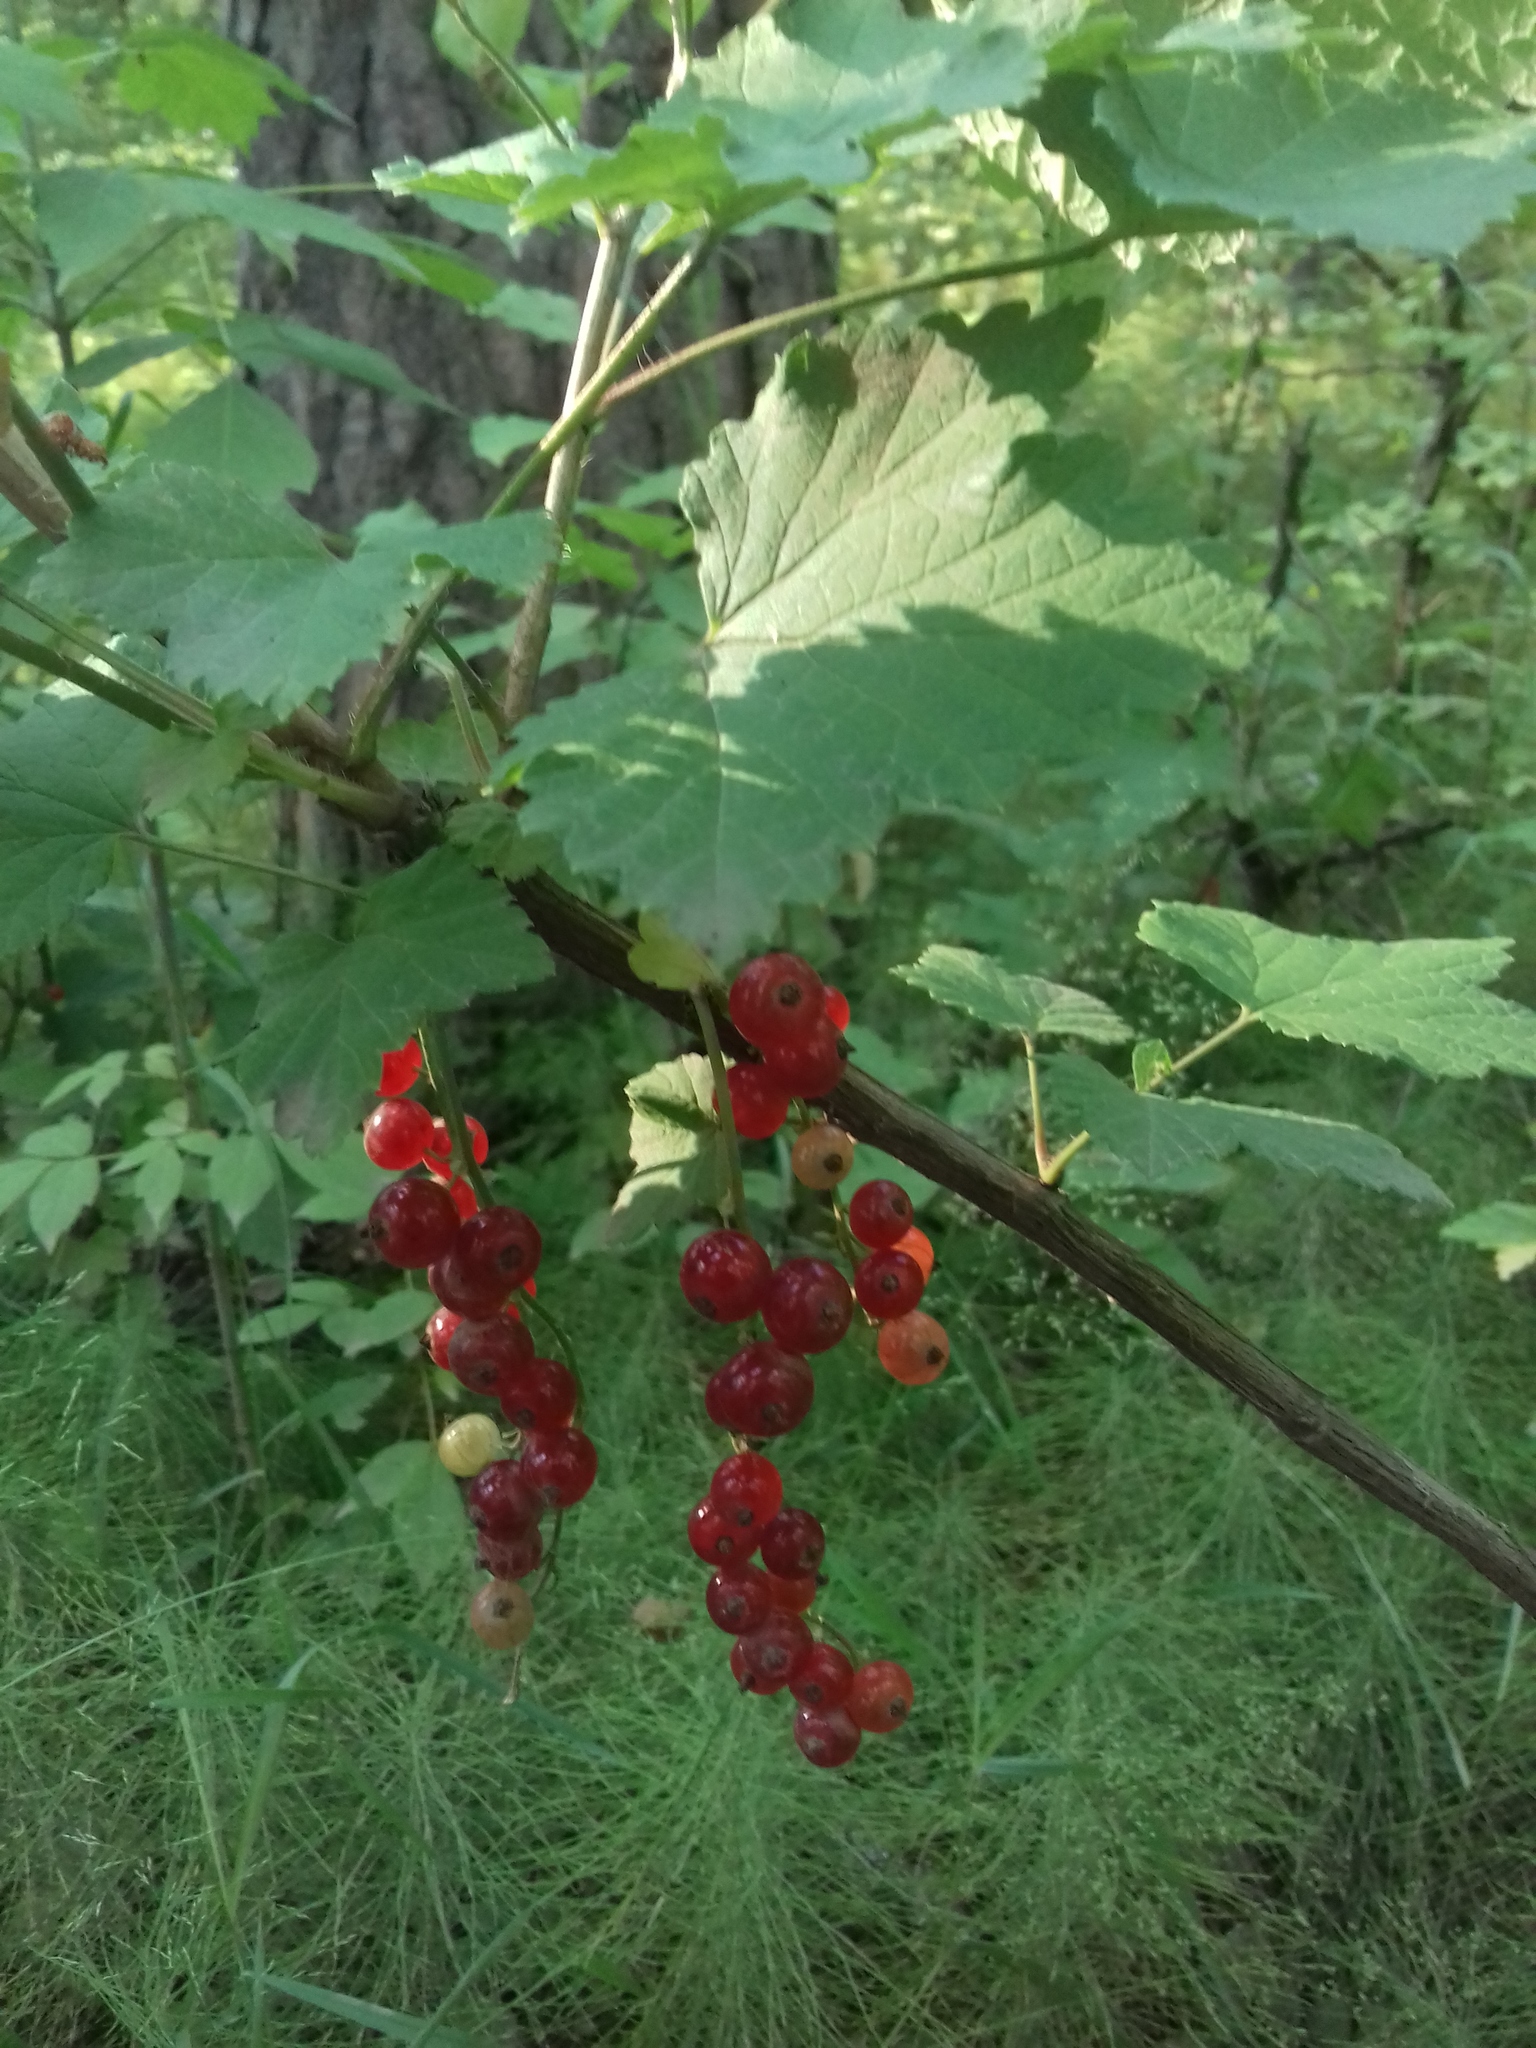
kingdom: Plantae
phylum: Tracheophyta
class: Magnoliopsida
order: Saxifragales
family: Grossulariaceae
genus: Ribes
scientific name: Ribes rubrum
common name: Red currant
